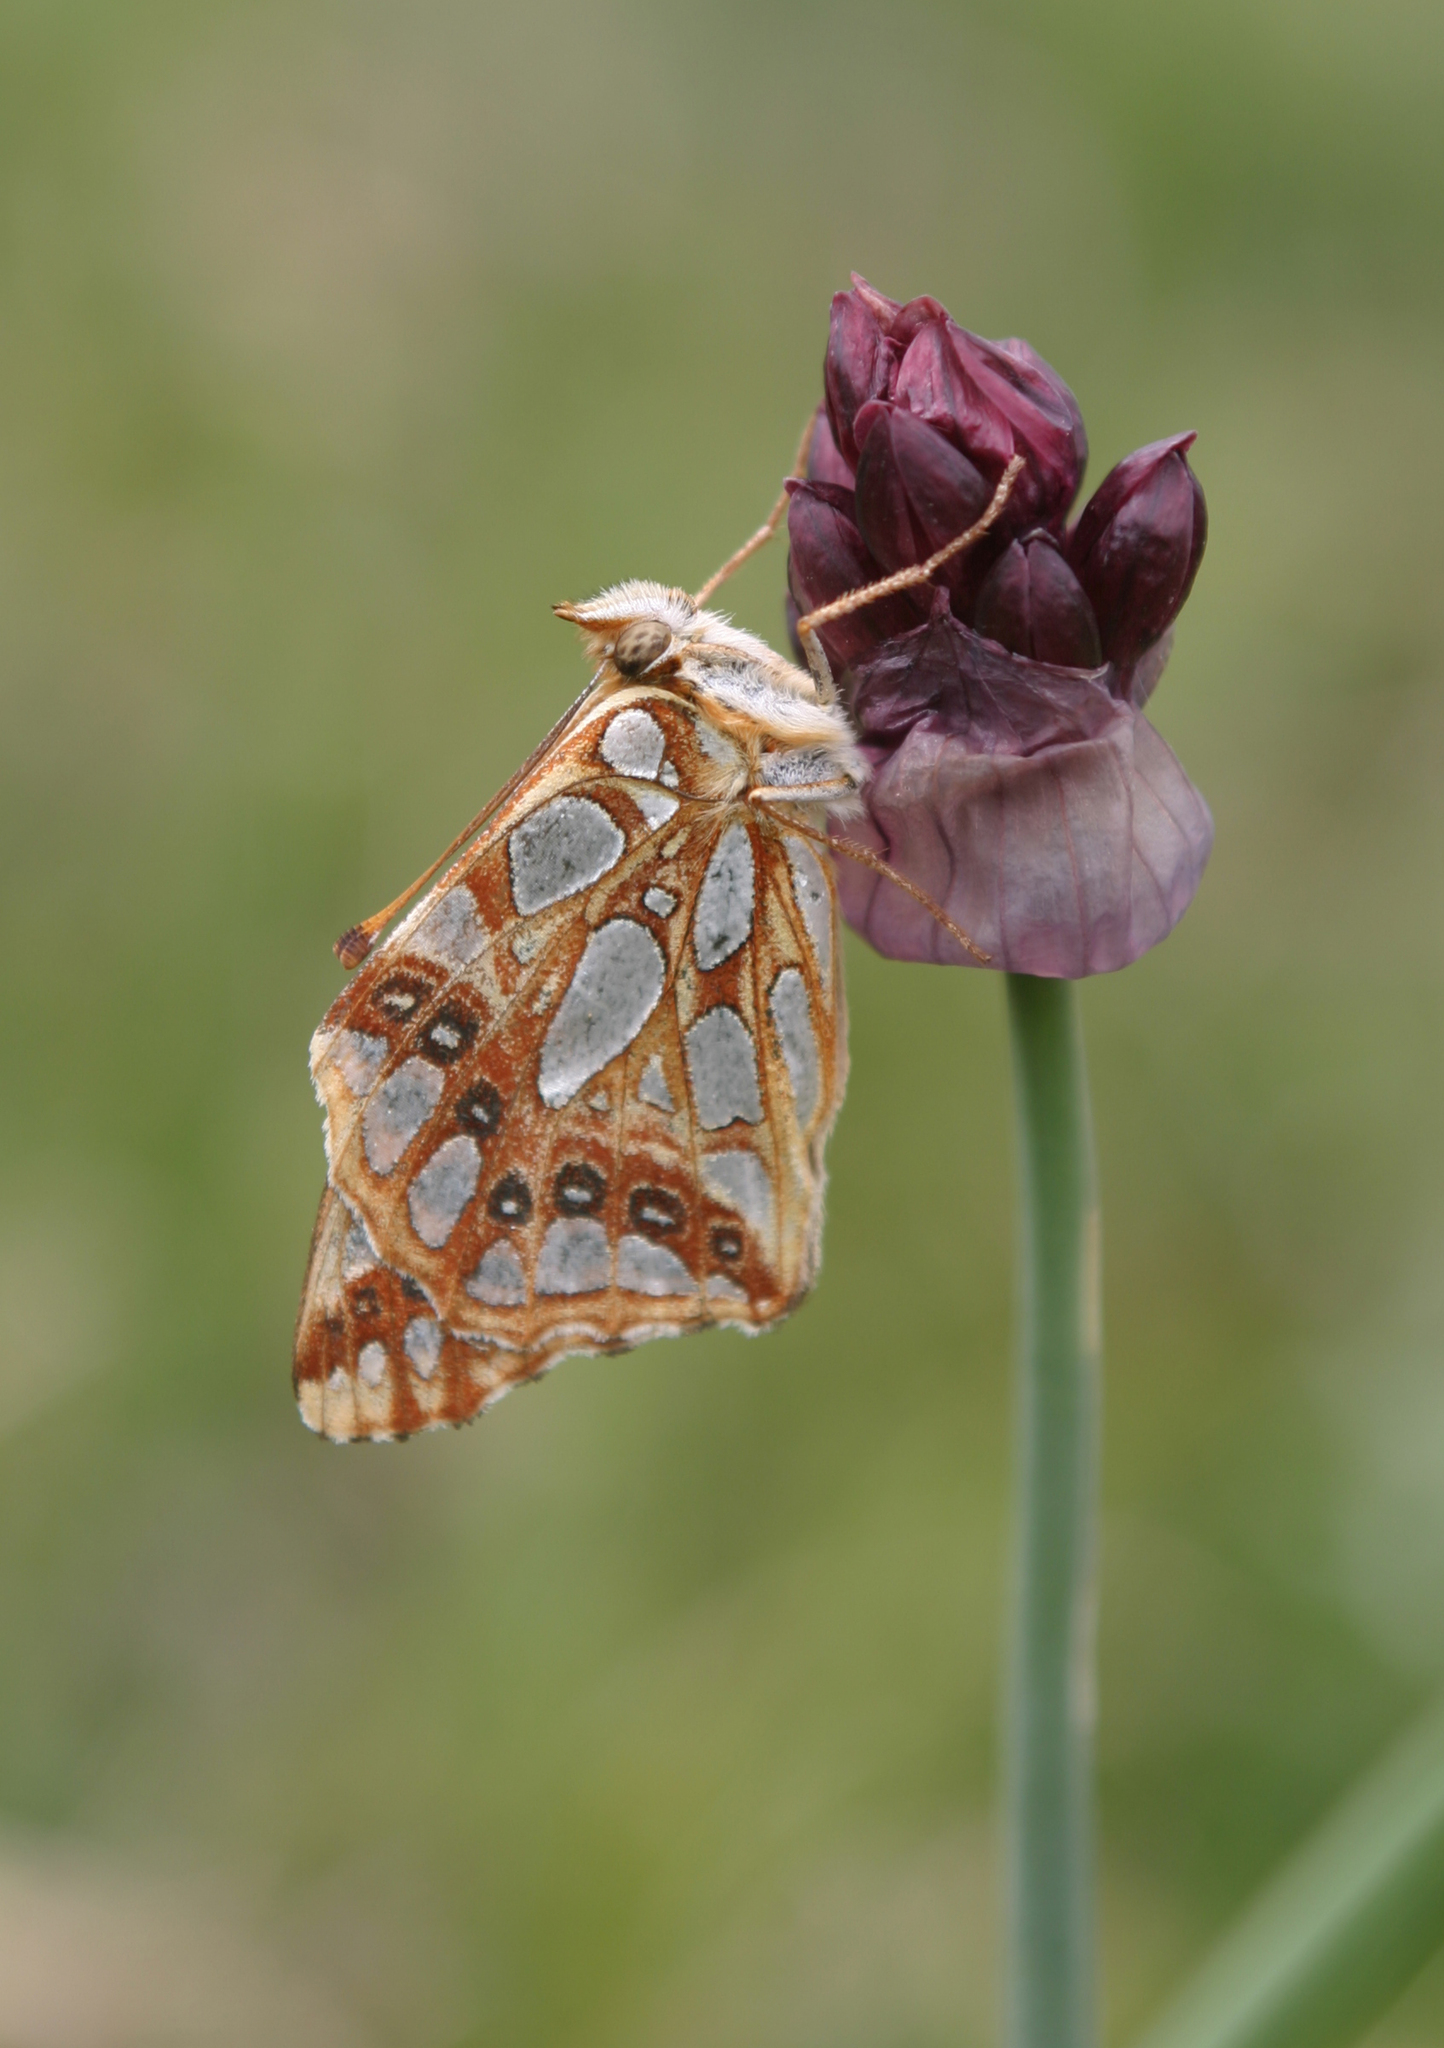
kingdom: Plantae
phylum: Tracheophyta
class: Liliopsida
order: Asparagales
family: Amaryllidaceae
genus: Allium
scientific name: Allium atrosanguineum
